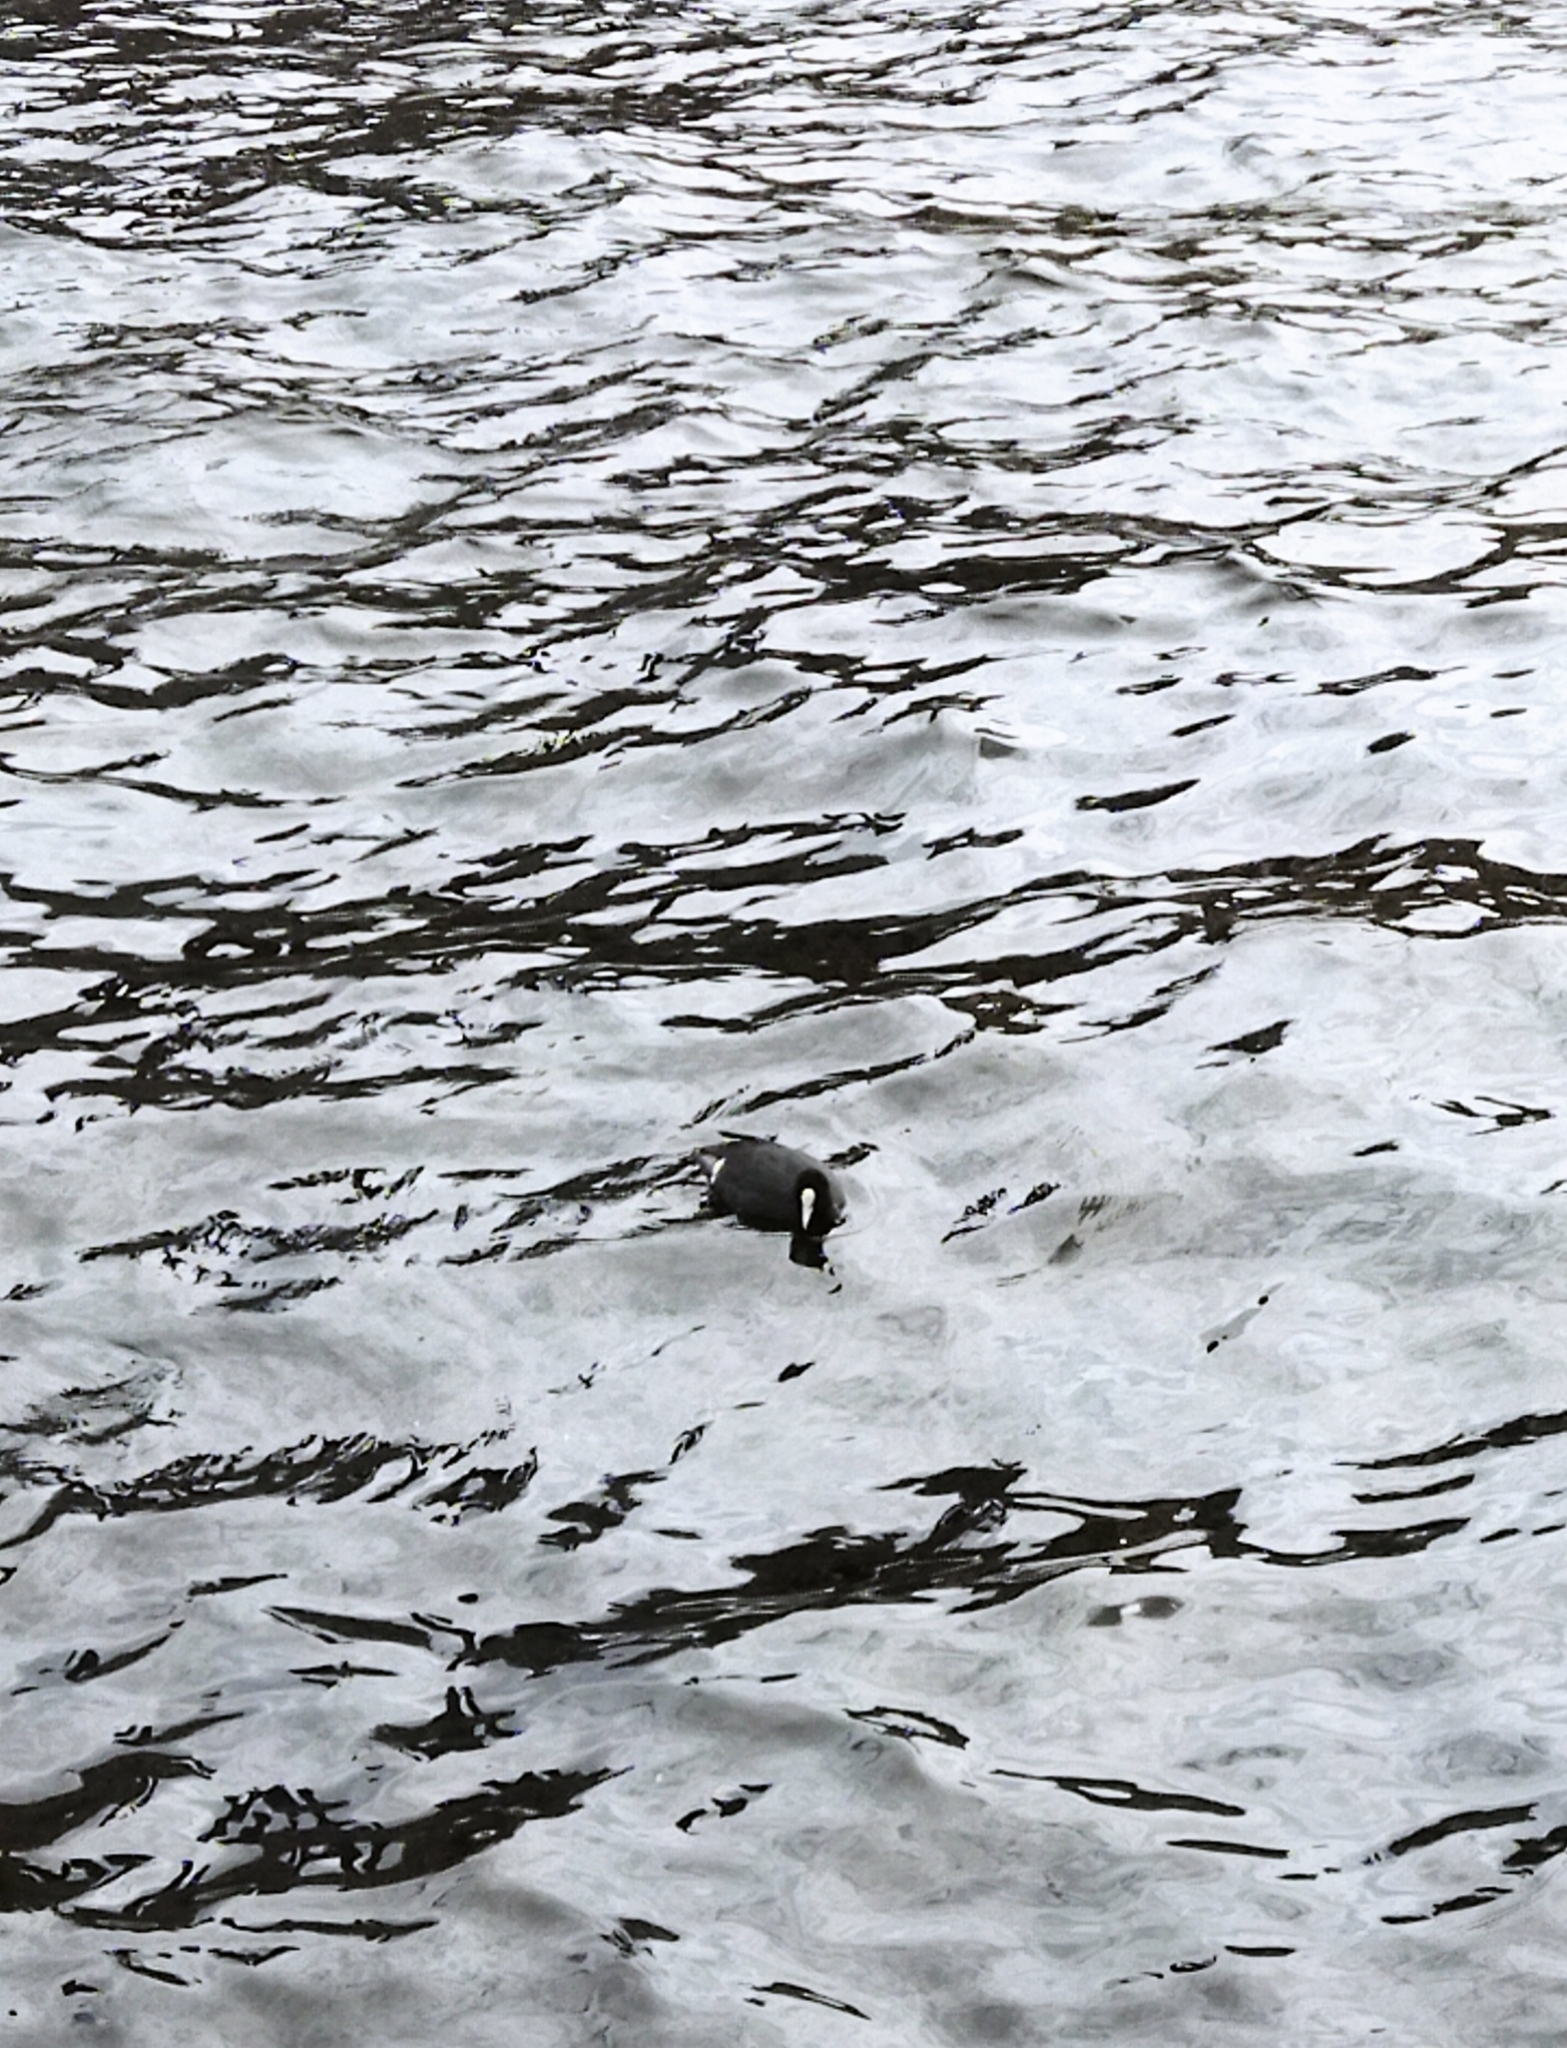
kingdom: Animalia
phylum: Chordata
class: Aves
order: Gruiformes
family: Rallidae
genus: Fulica
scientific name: Fulica atra
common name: Eurasian coot
